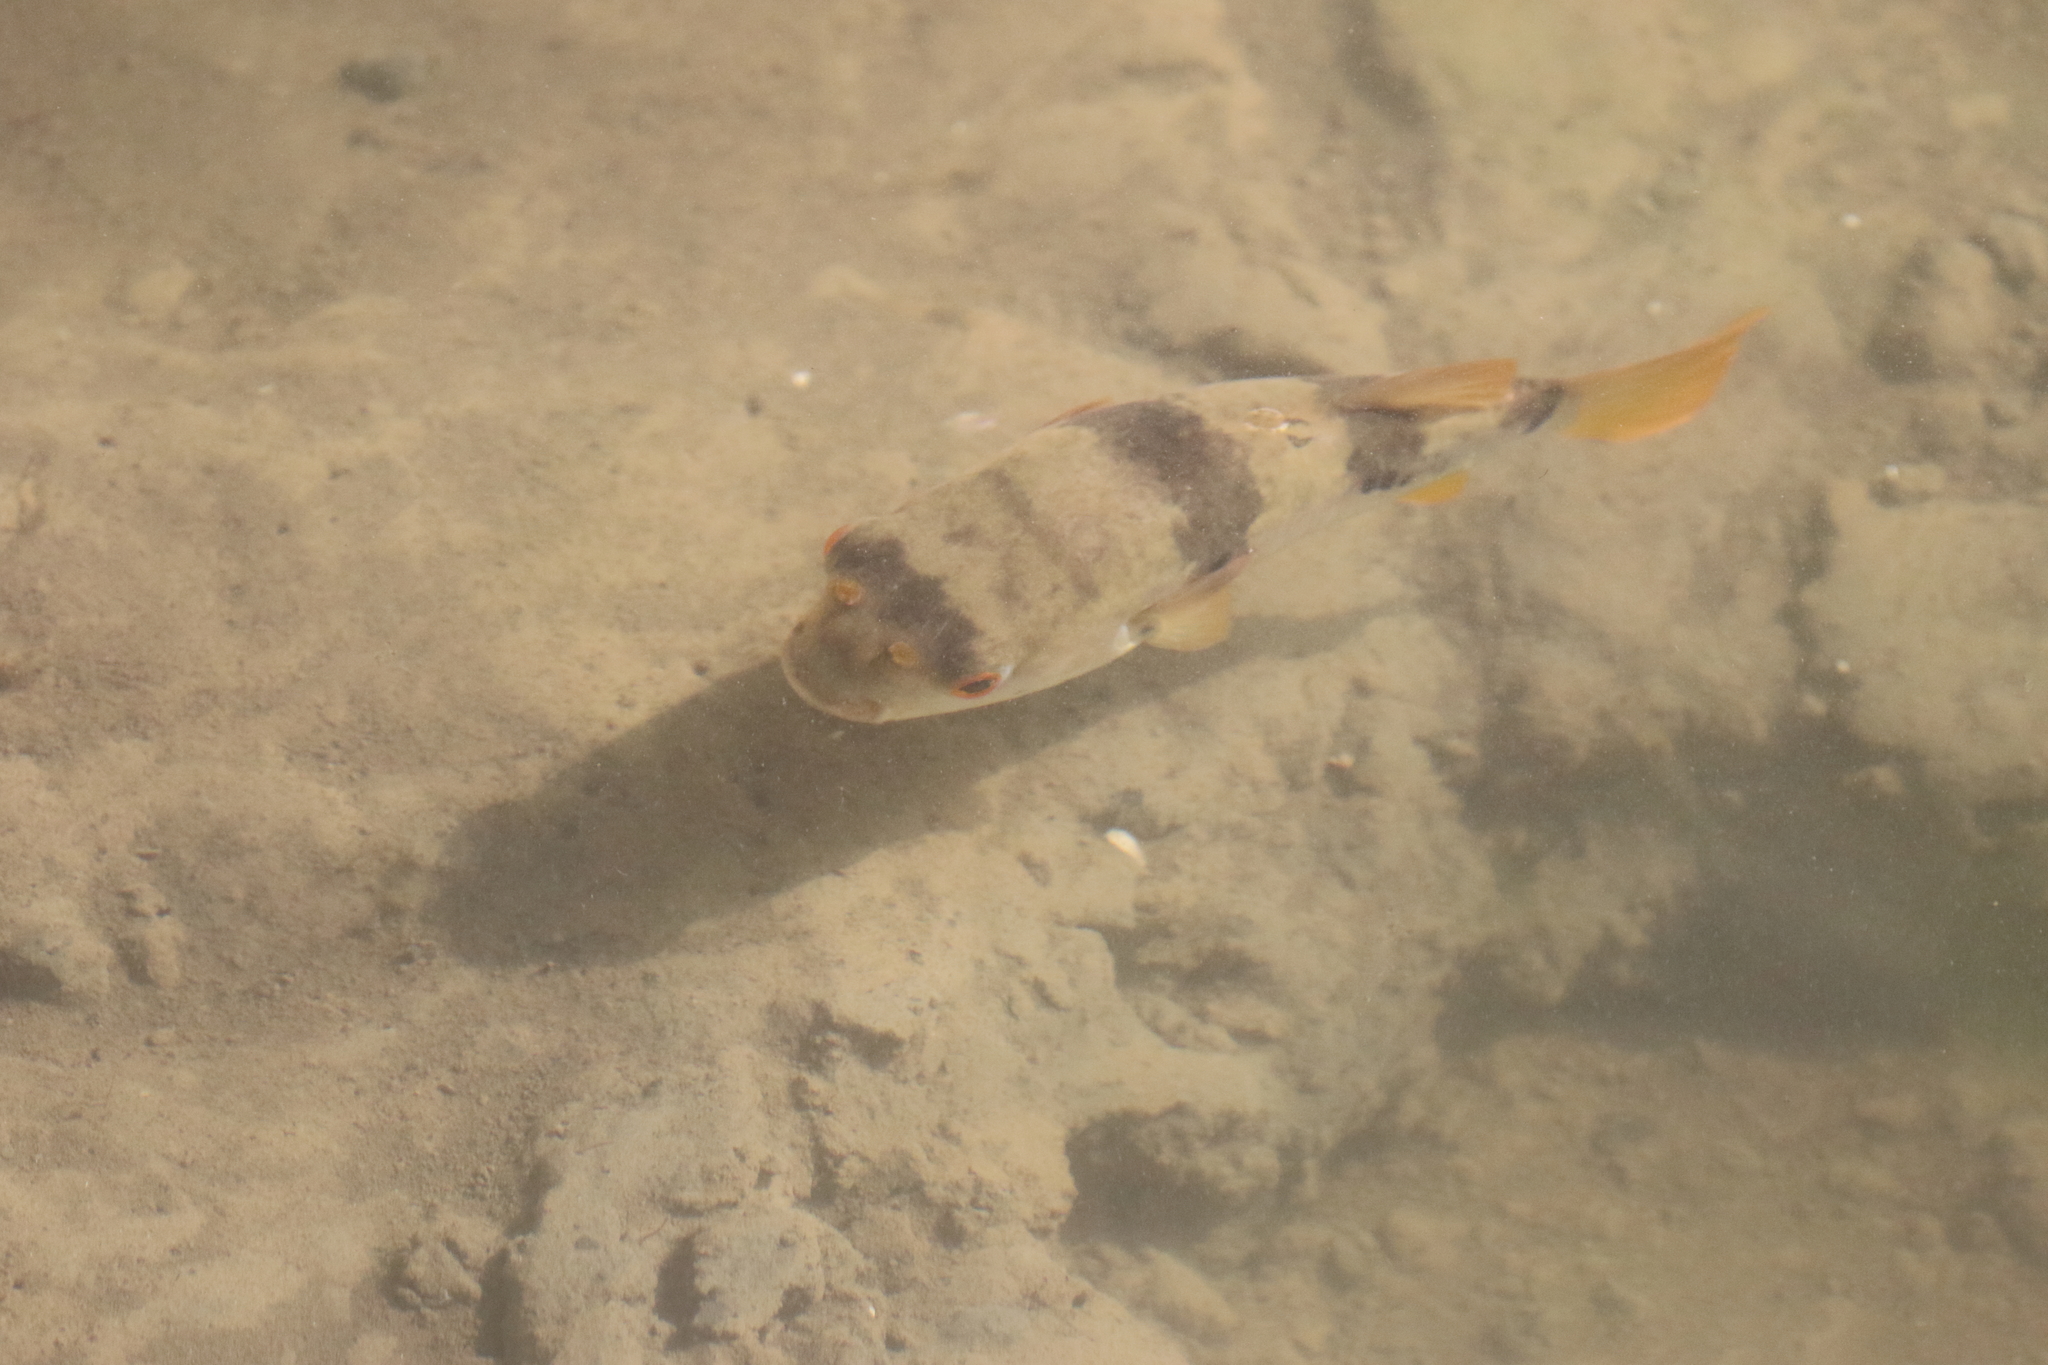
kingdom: Animalia
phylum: Chordata
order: Tetraodontiformes
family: Tetraodontidae
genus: Marilyna
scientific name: Marilyna pleurosticta
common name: Banded toadfish
